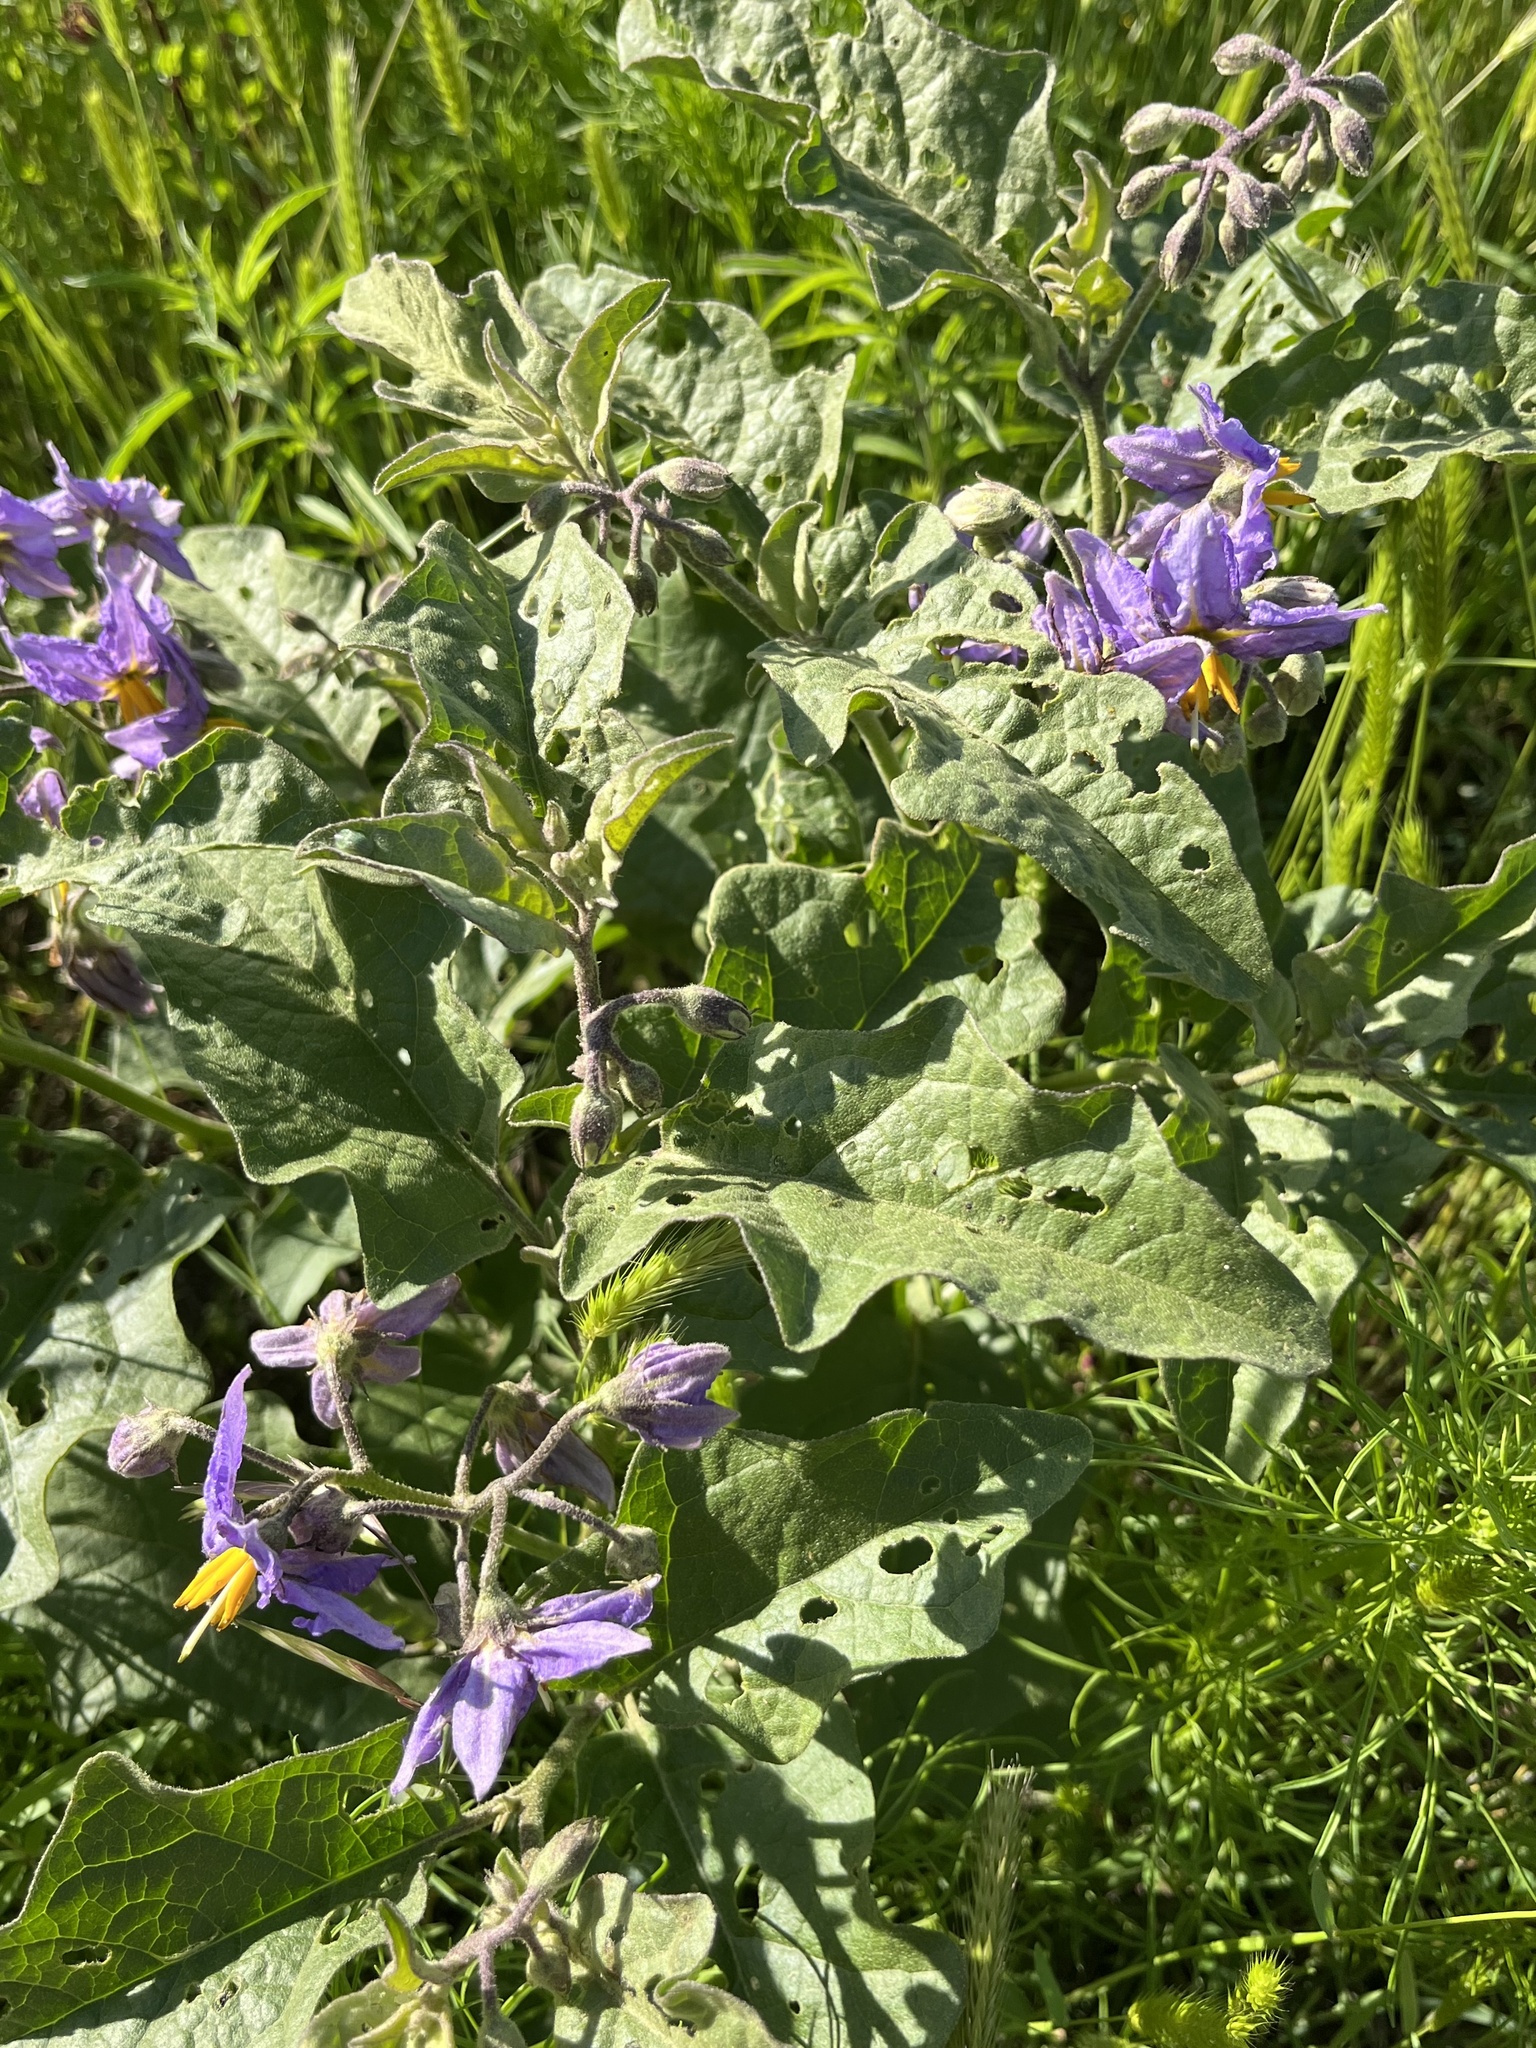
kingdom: Plantae
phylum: Tracheophyta
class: Magnoliopsida
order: Solanales
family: Solanaceae
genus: Solanum
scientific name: Solanum dimidiatum
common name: Carolina horse-nettle
